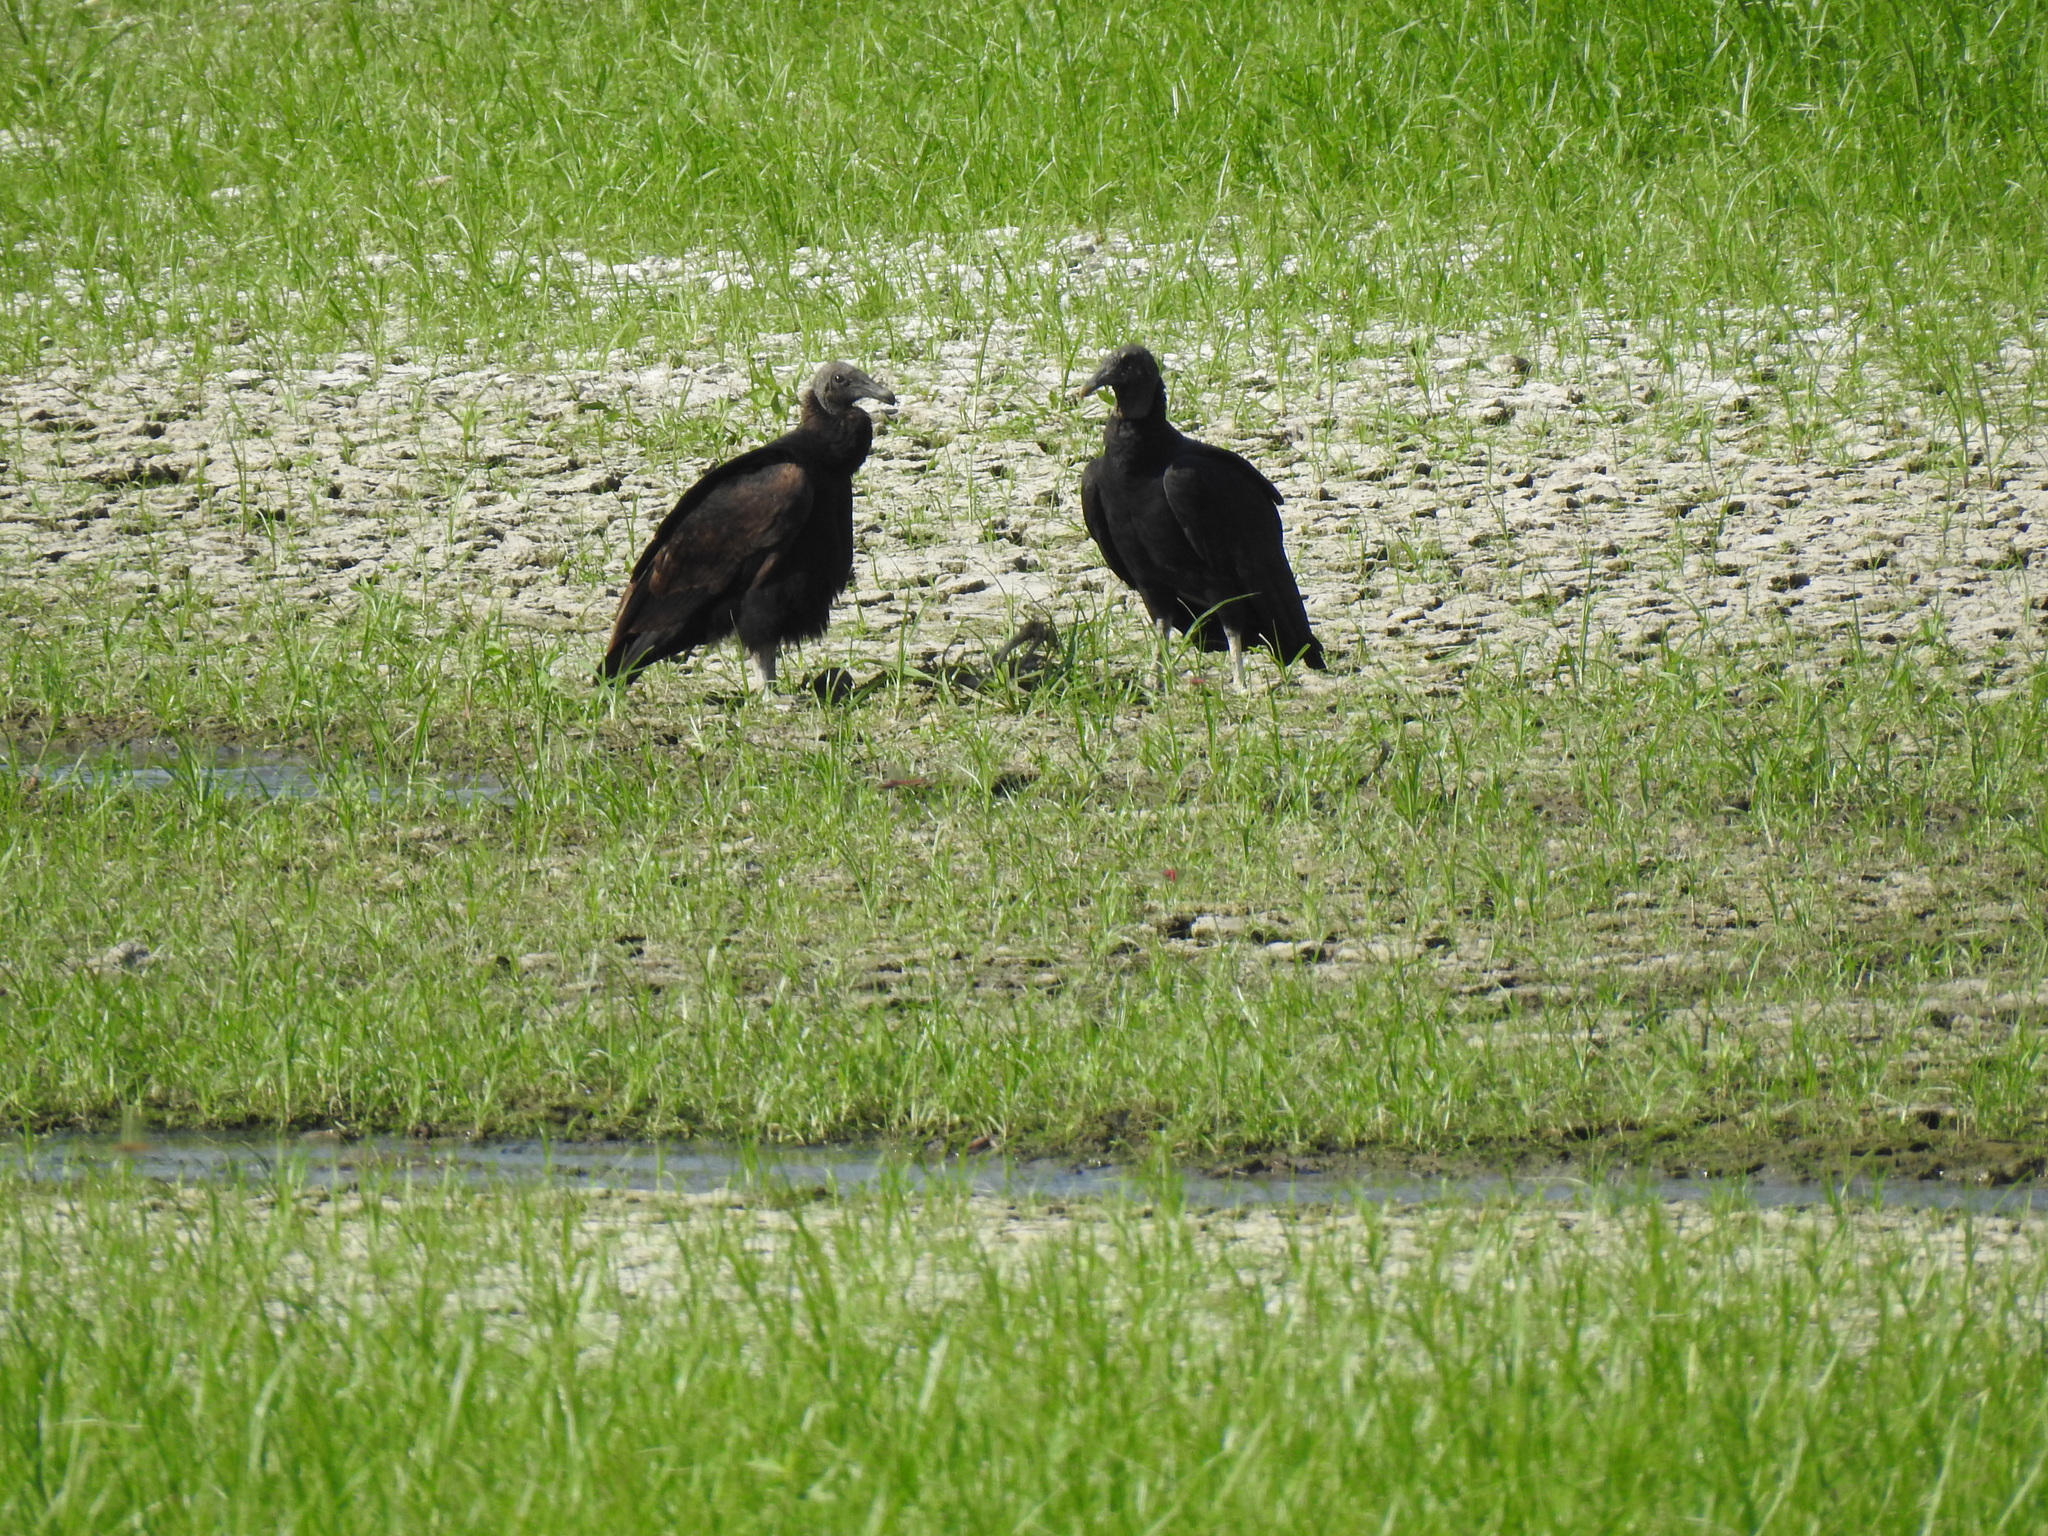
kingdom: Animalia
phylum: Chordata
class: Aves
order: Accipitriformes
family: Cathartidae
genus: Coragyps
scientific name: Coragyps atratus
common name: Black vulture
